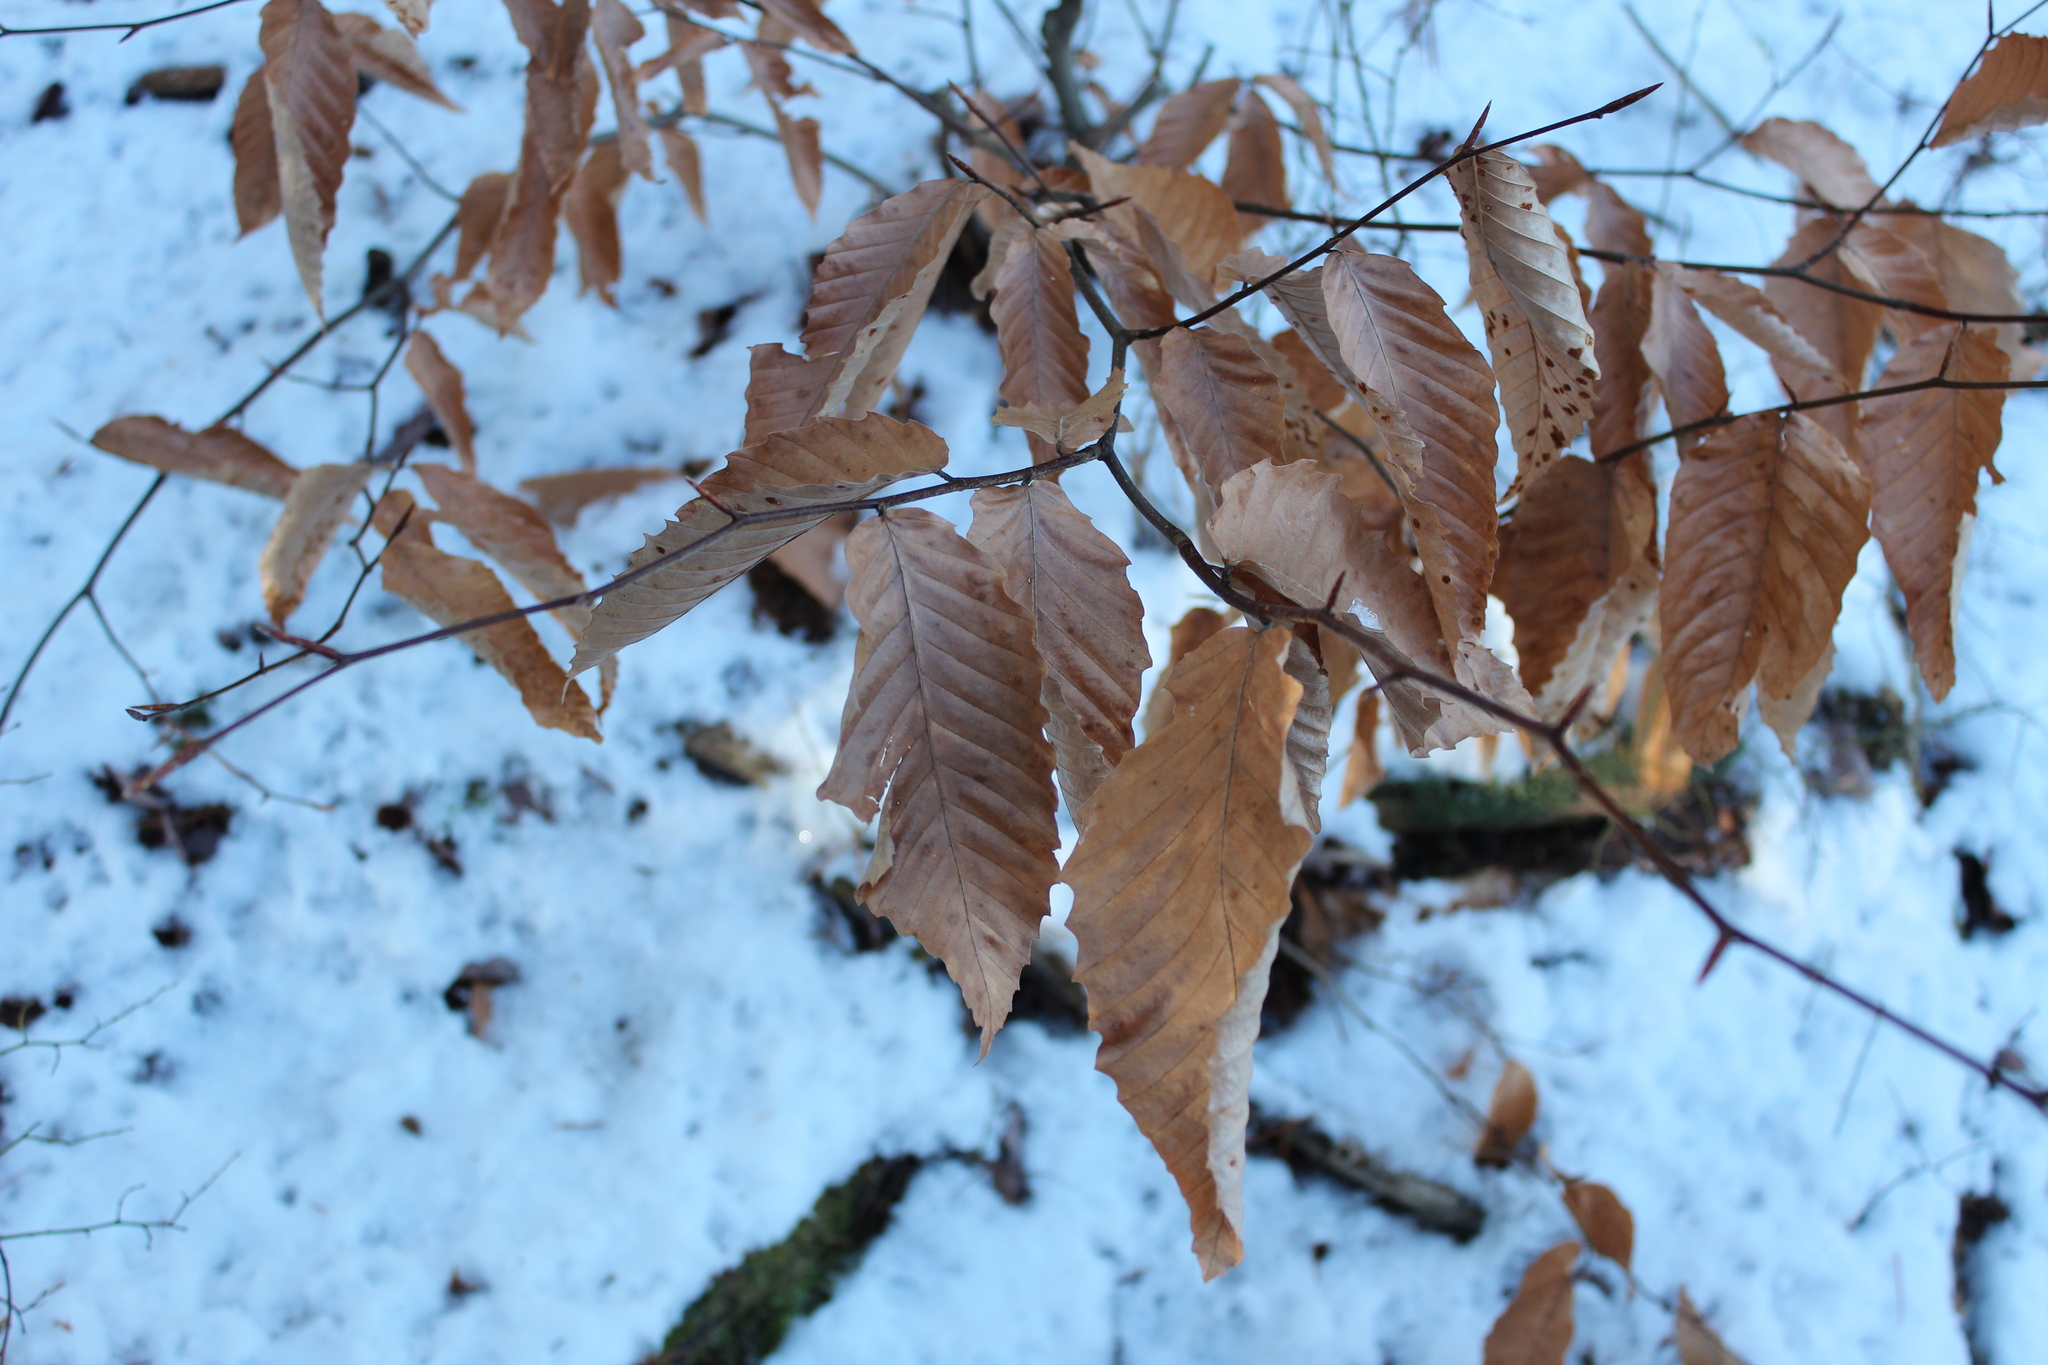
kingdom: Plantae
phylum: Tracheophyta
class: Magnoliopsida
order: Fagales
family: Fagaceae
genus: Fagus
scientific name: Fagus grandifolia
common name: American beech
